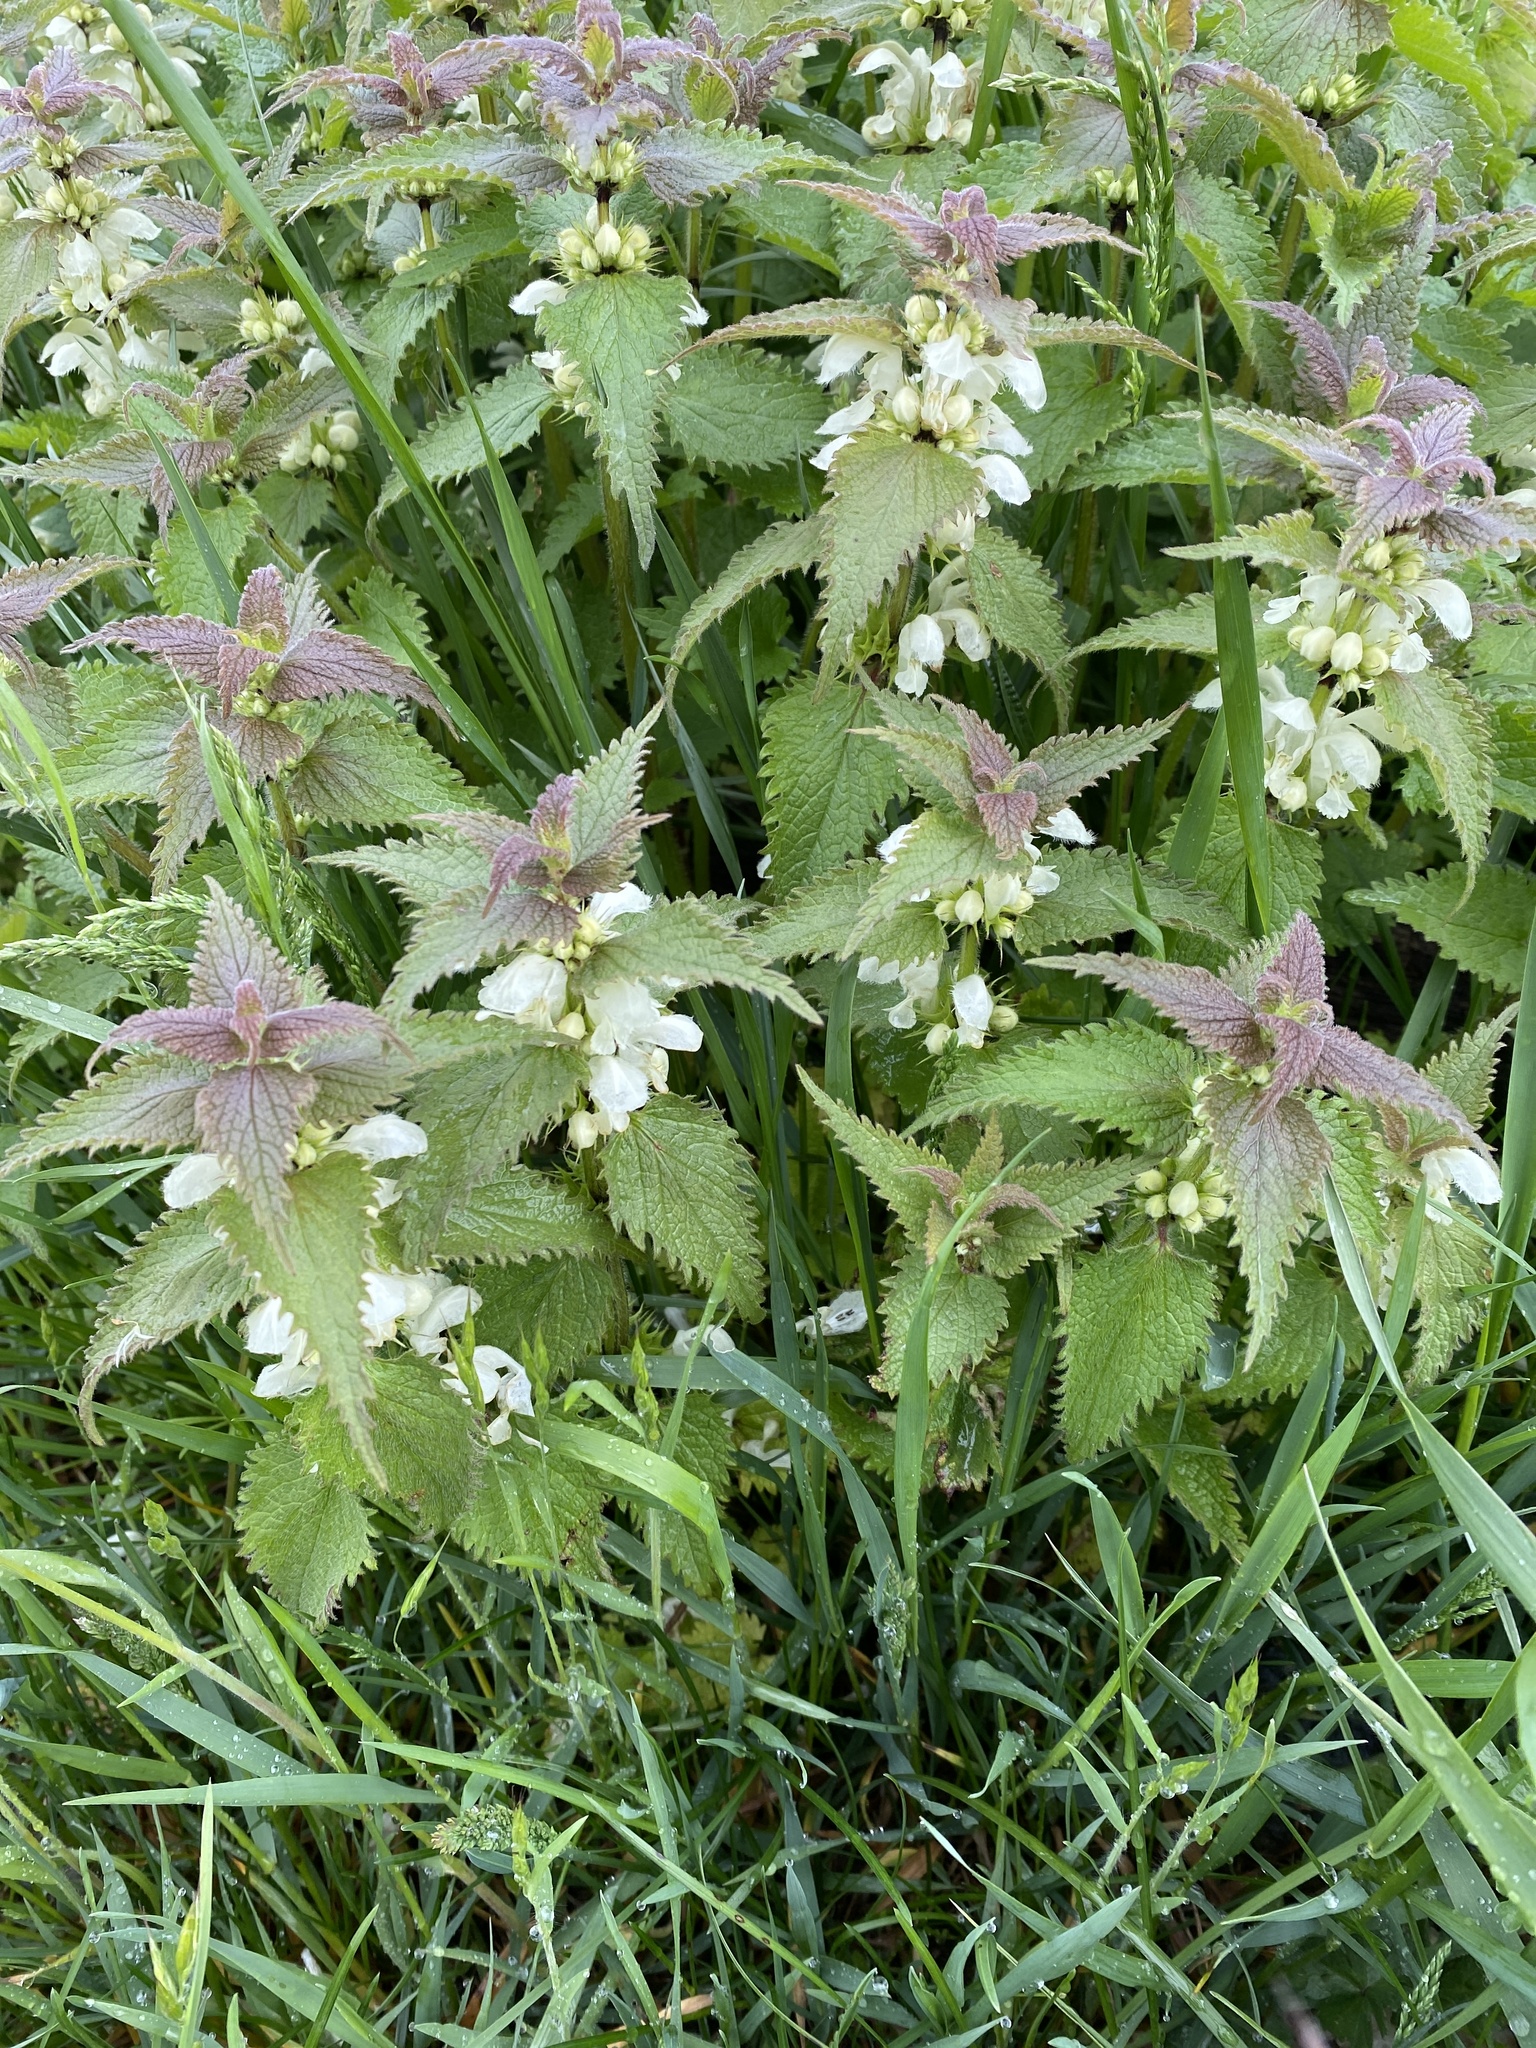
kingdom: Plantae
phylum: Tracheophyta
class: Magnoliopsida
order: Lamiales
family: Lamiaceae
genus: Lamium
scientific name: Lamium album
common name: White dead-nettle
